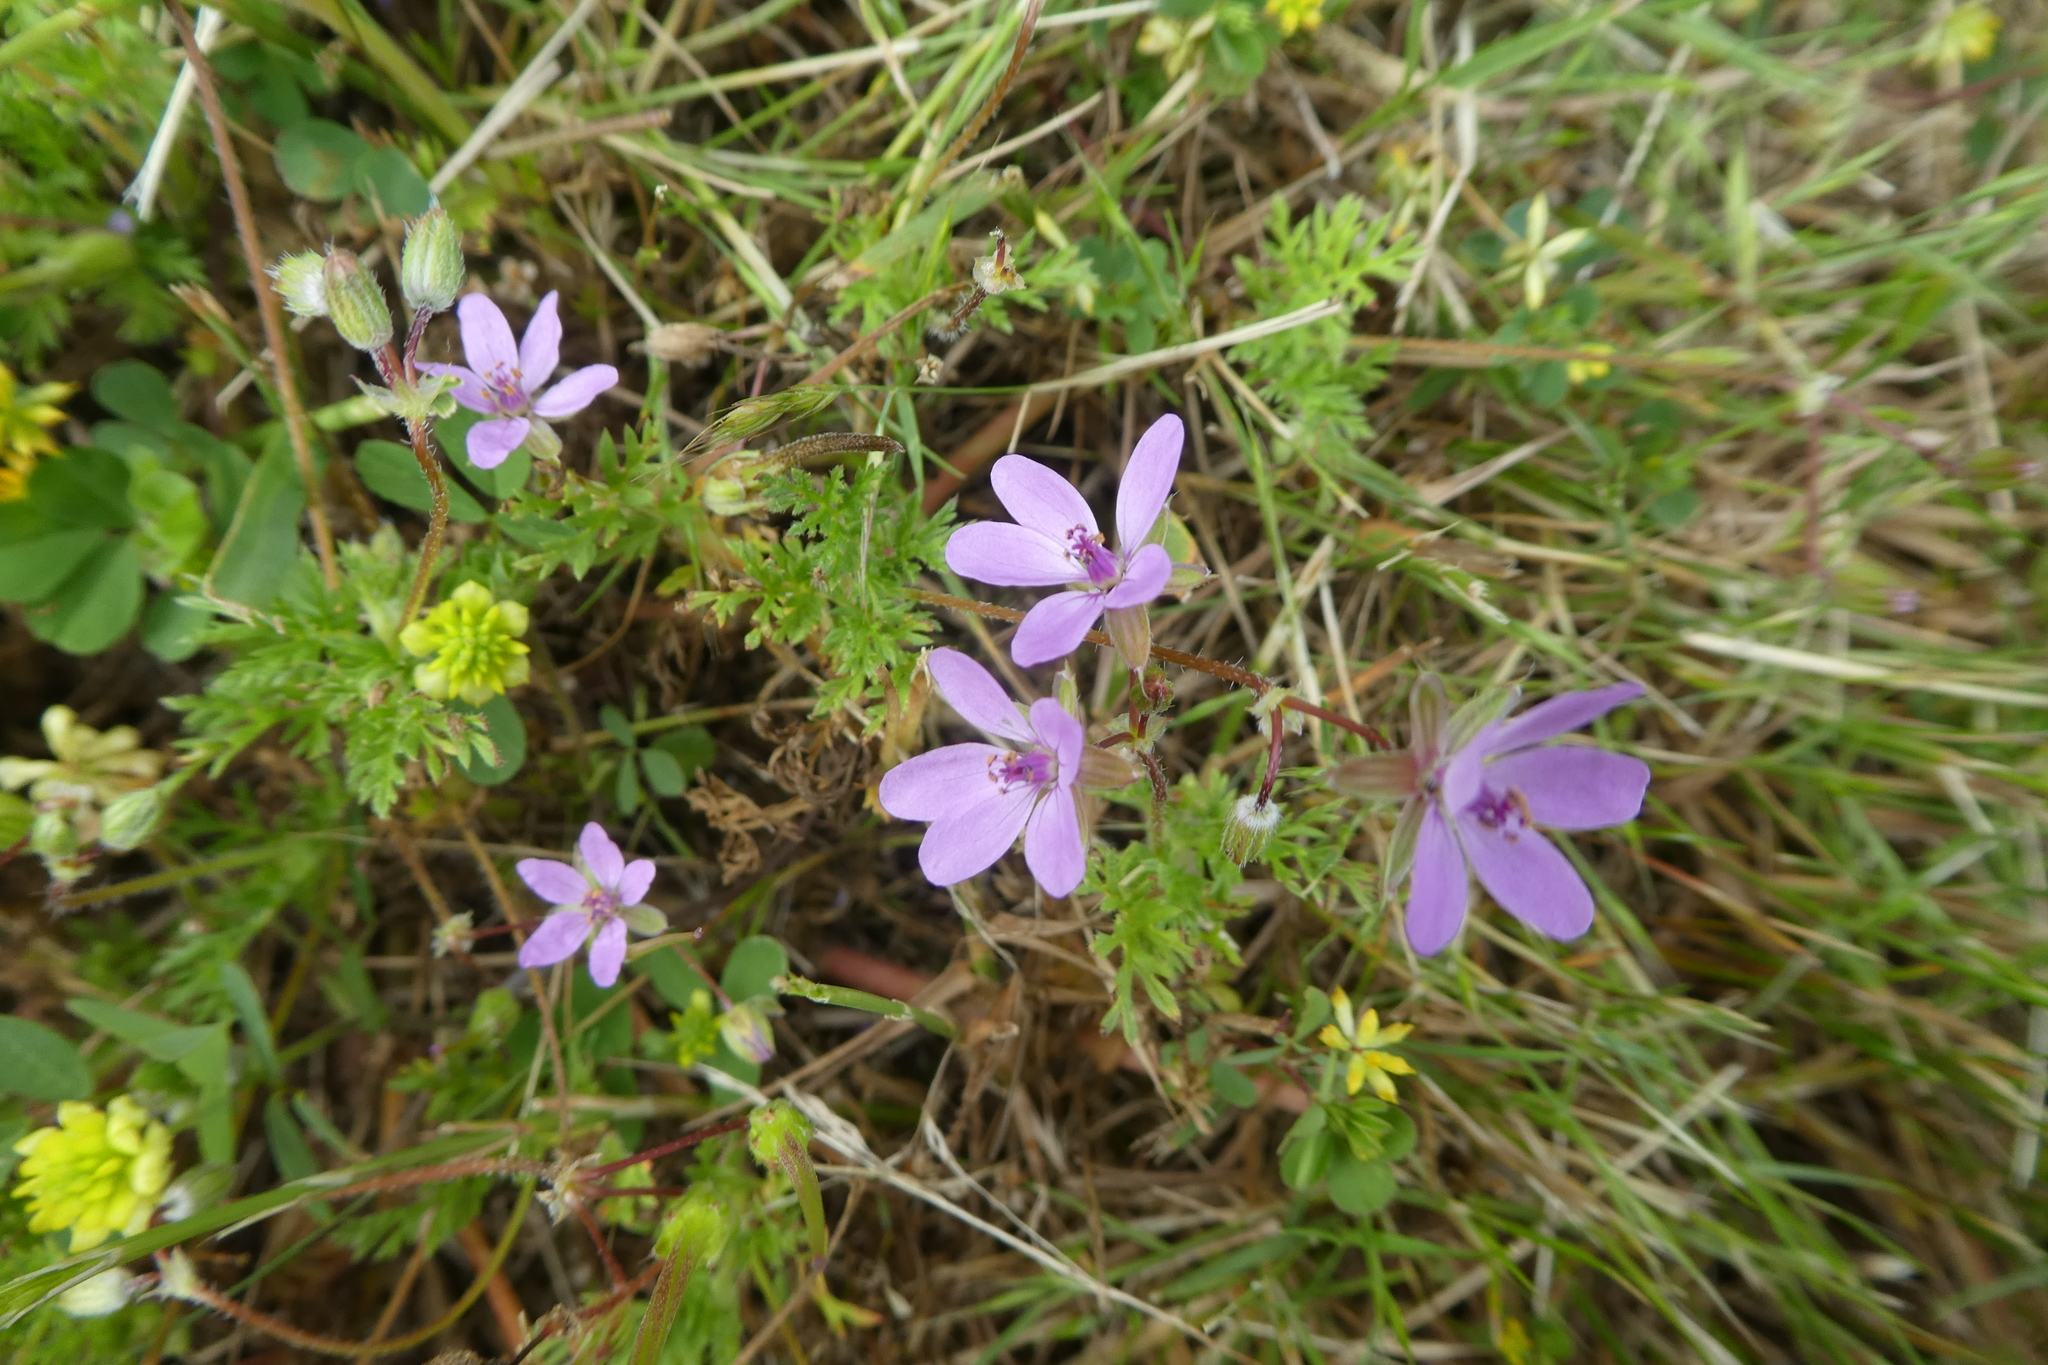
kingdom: Plantae
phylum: Tracheophyta
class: Magnoliopsida
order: Geraniales
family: Geraniaceae
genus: Erodium
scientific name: Erodium cicutarium
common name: Common stork's-bill
